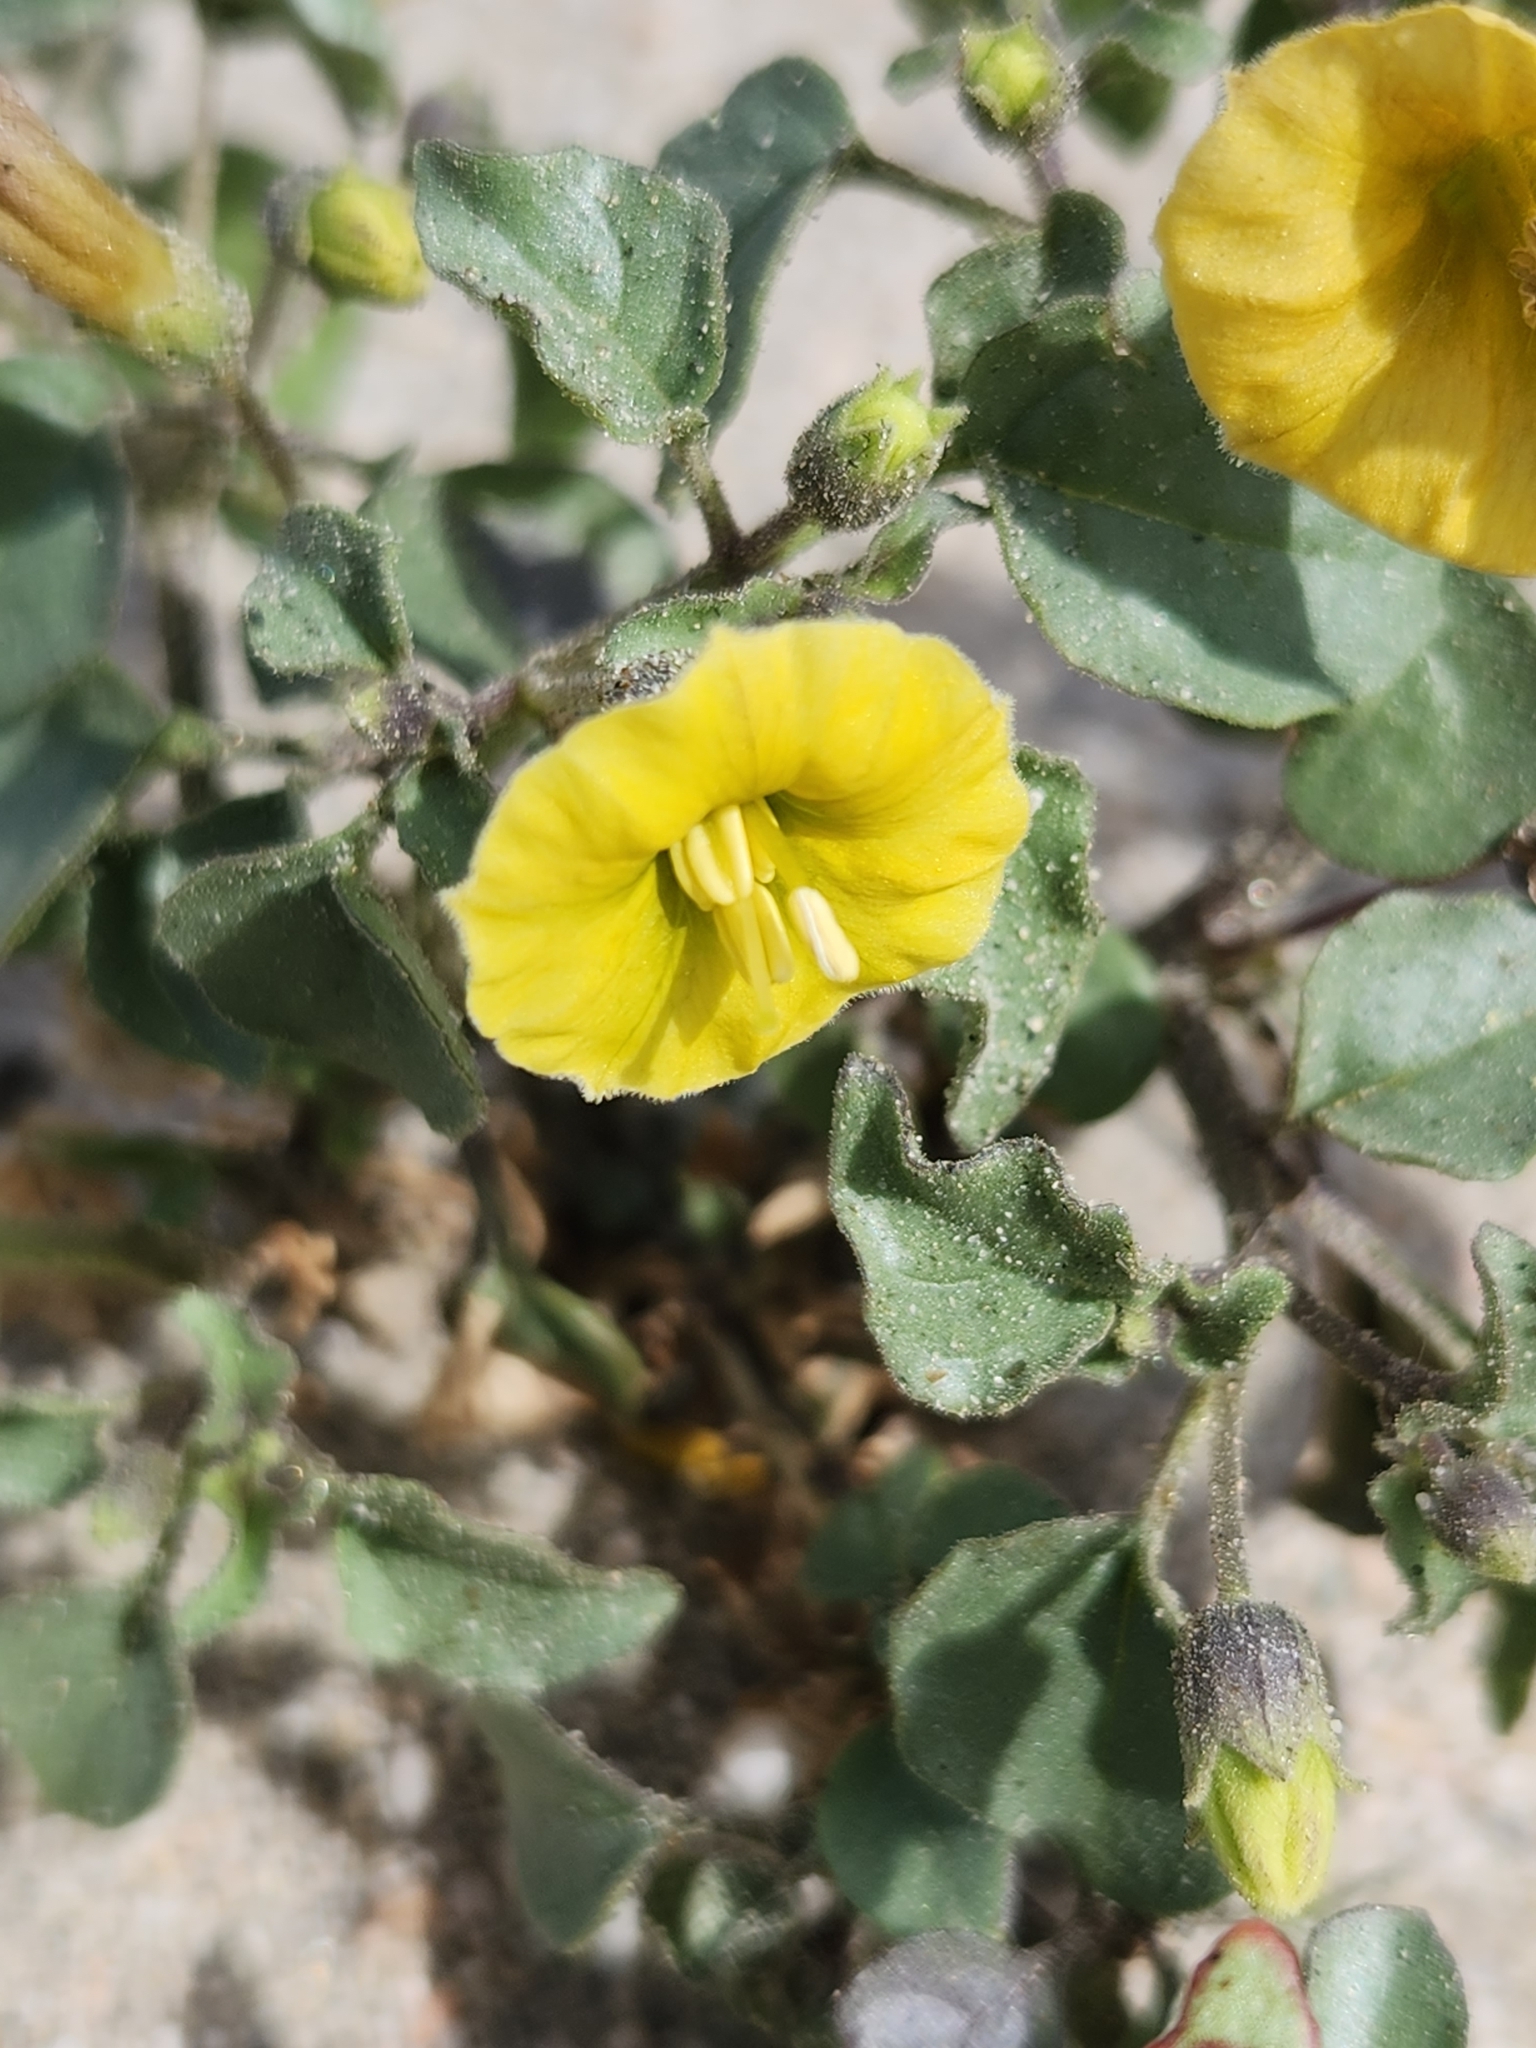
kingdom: Plantae
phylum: Tracheophyta
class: Magnoliopsida
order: Solanales
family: Solanaceae
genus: Physalis
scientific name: Physalis crassifolia
